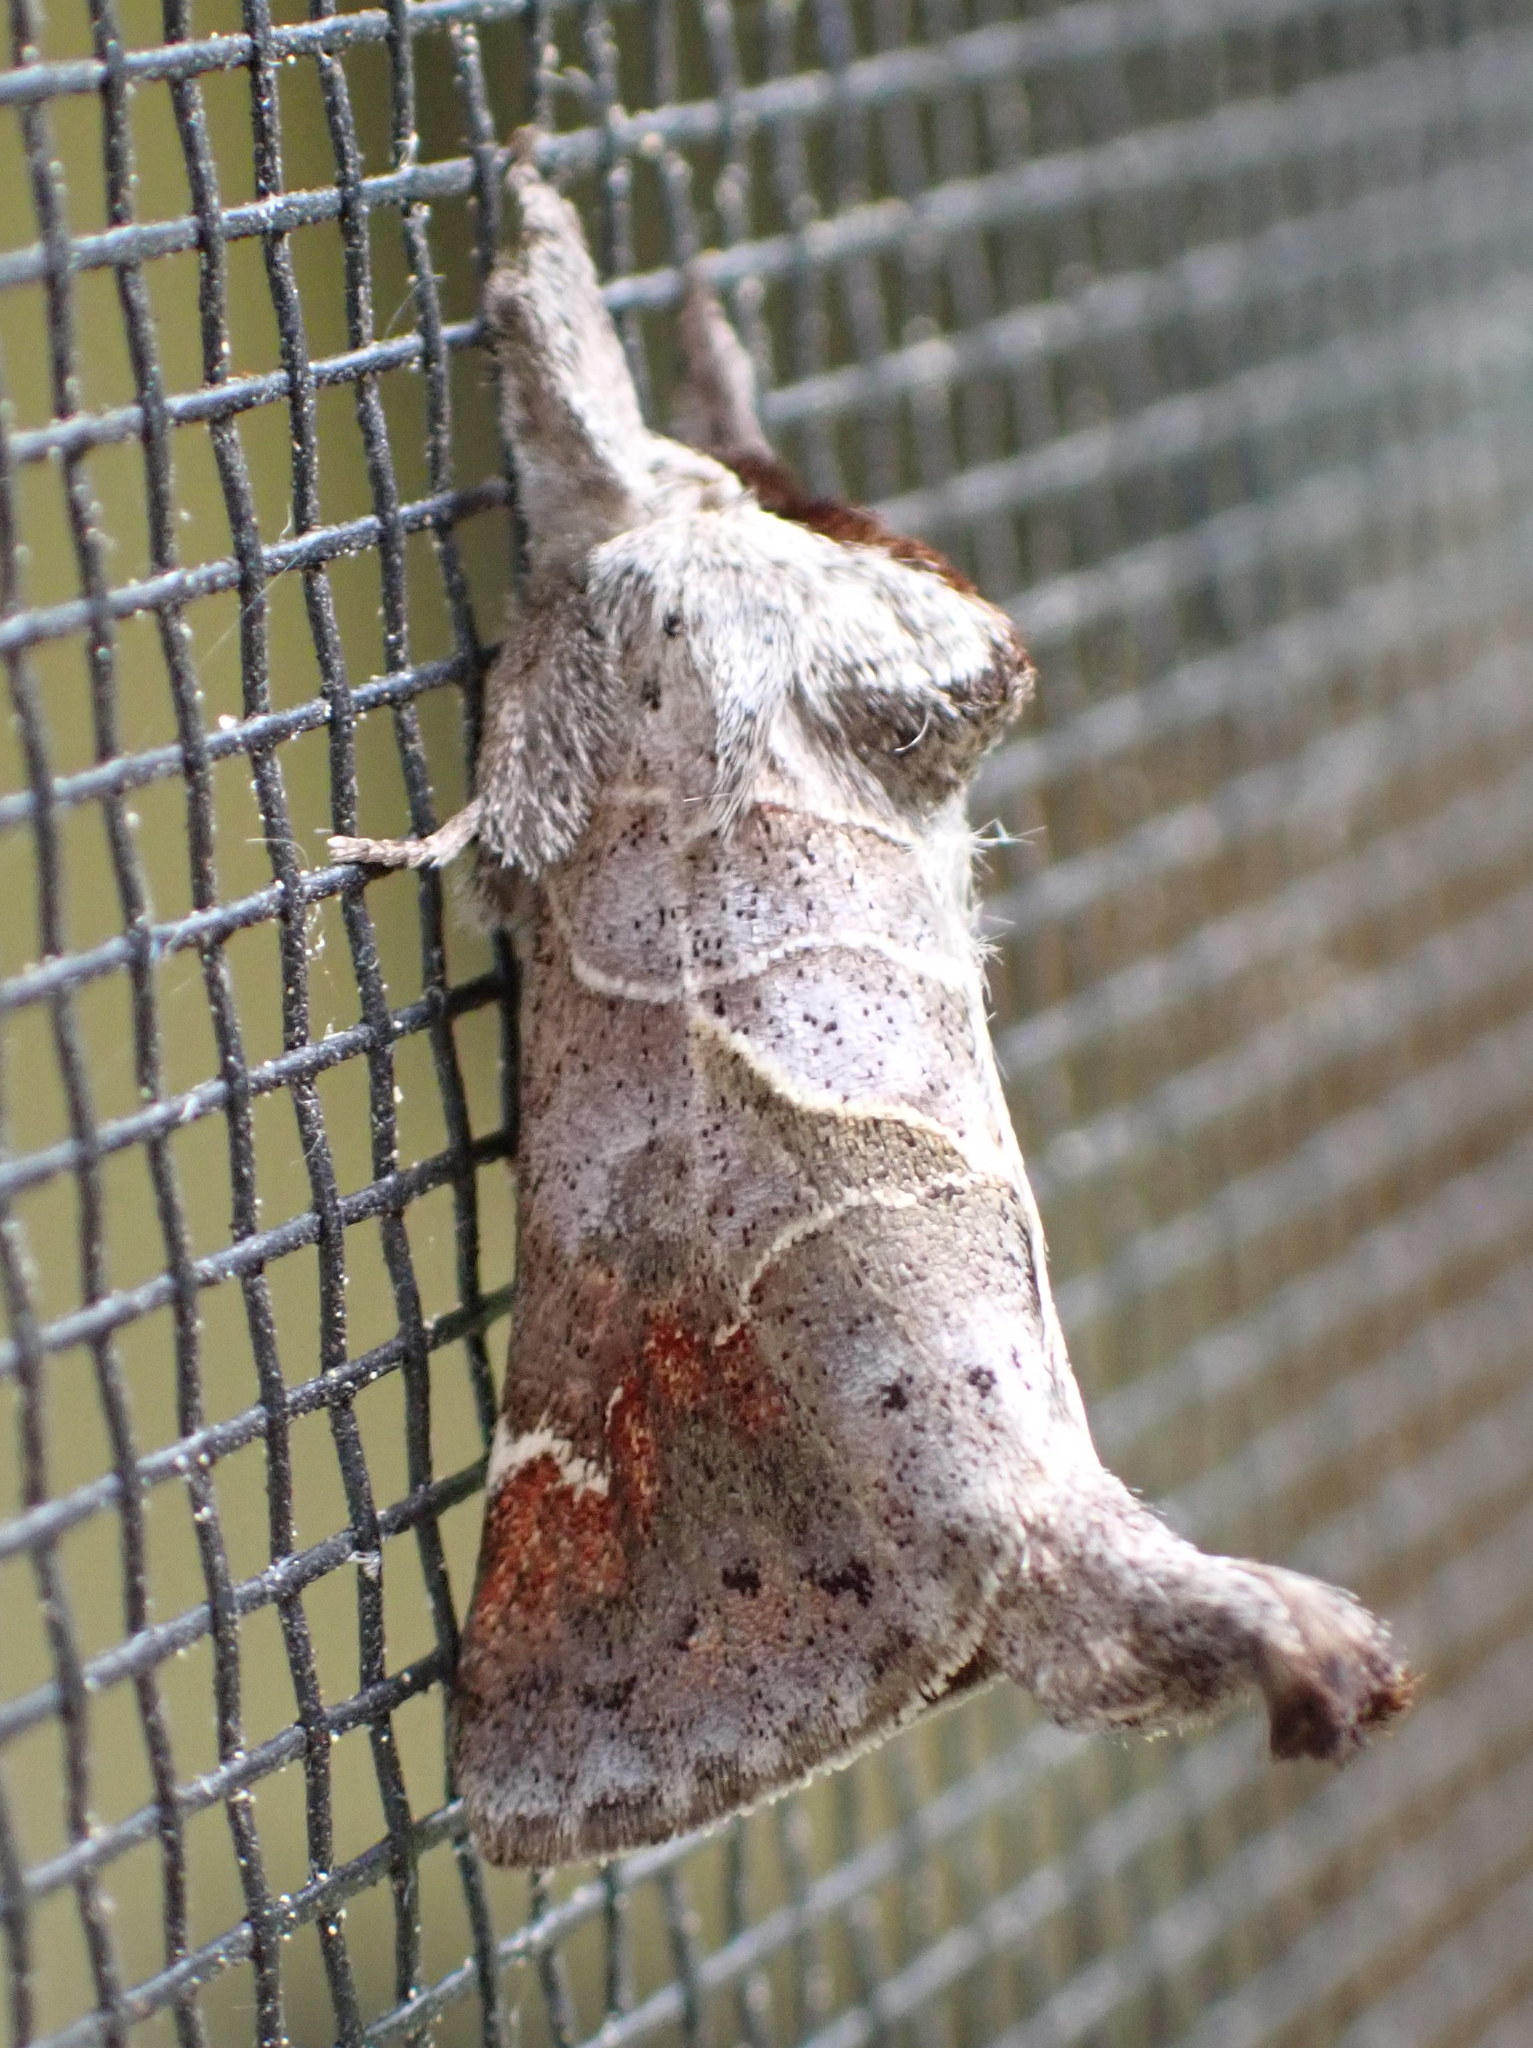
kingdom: Animalia
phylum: Arthropoda
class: Insecta
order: Lepidoptera
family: Notodontidae
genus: Clostera
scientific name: Clostera apicalis
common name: Apical prominent
